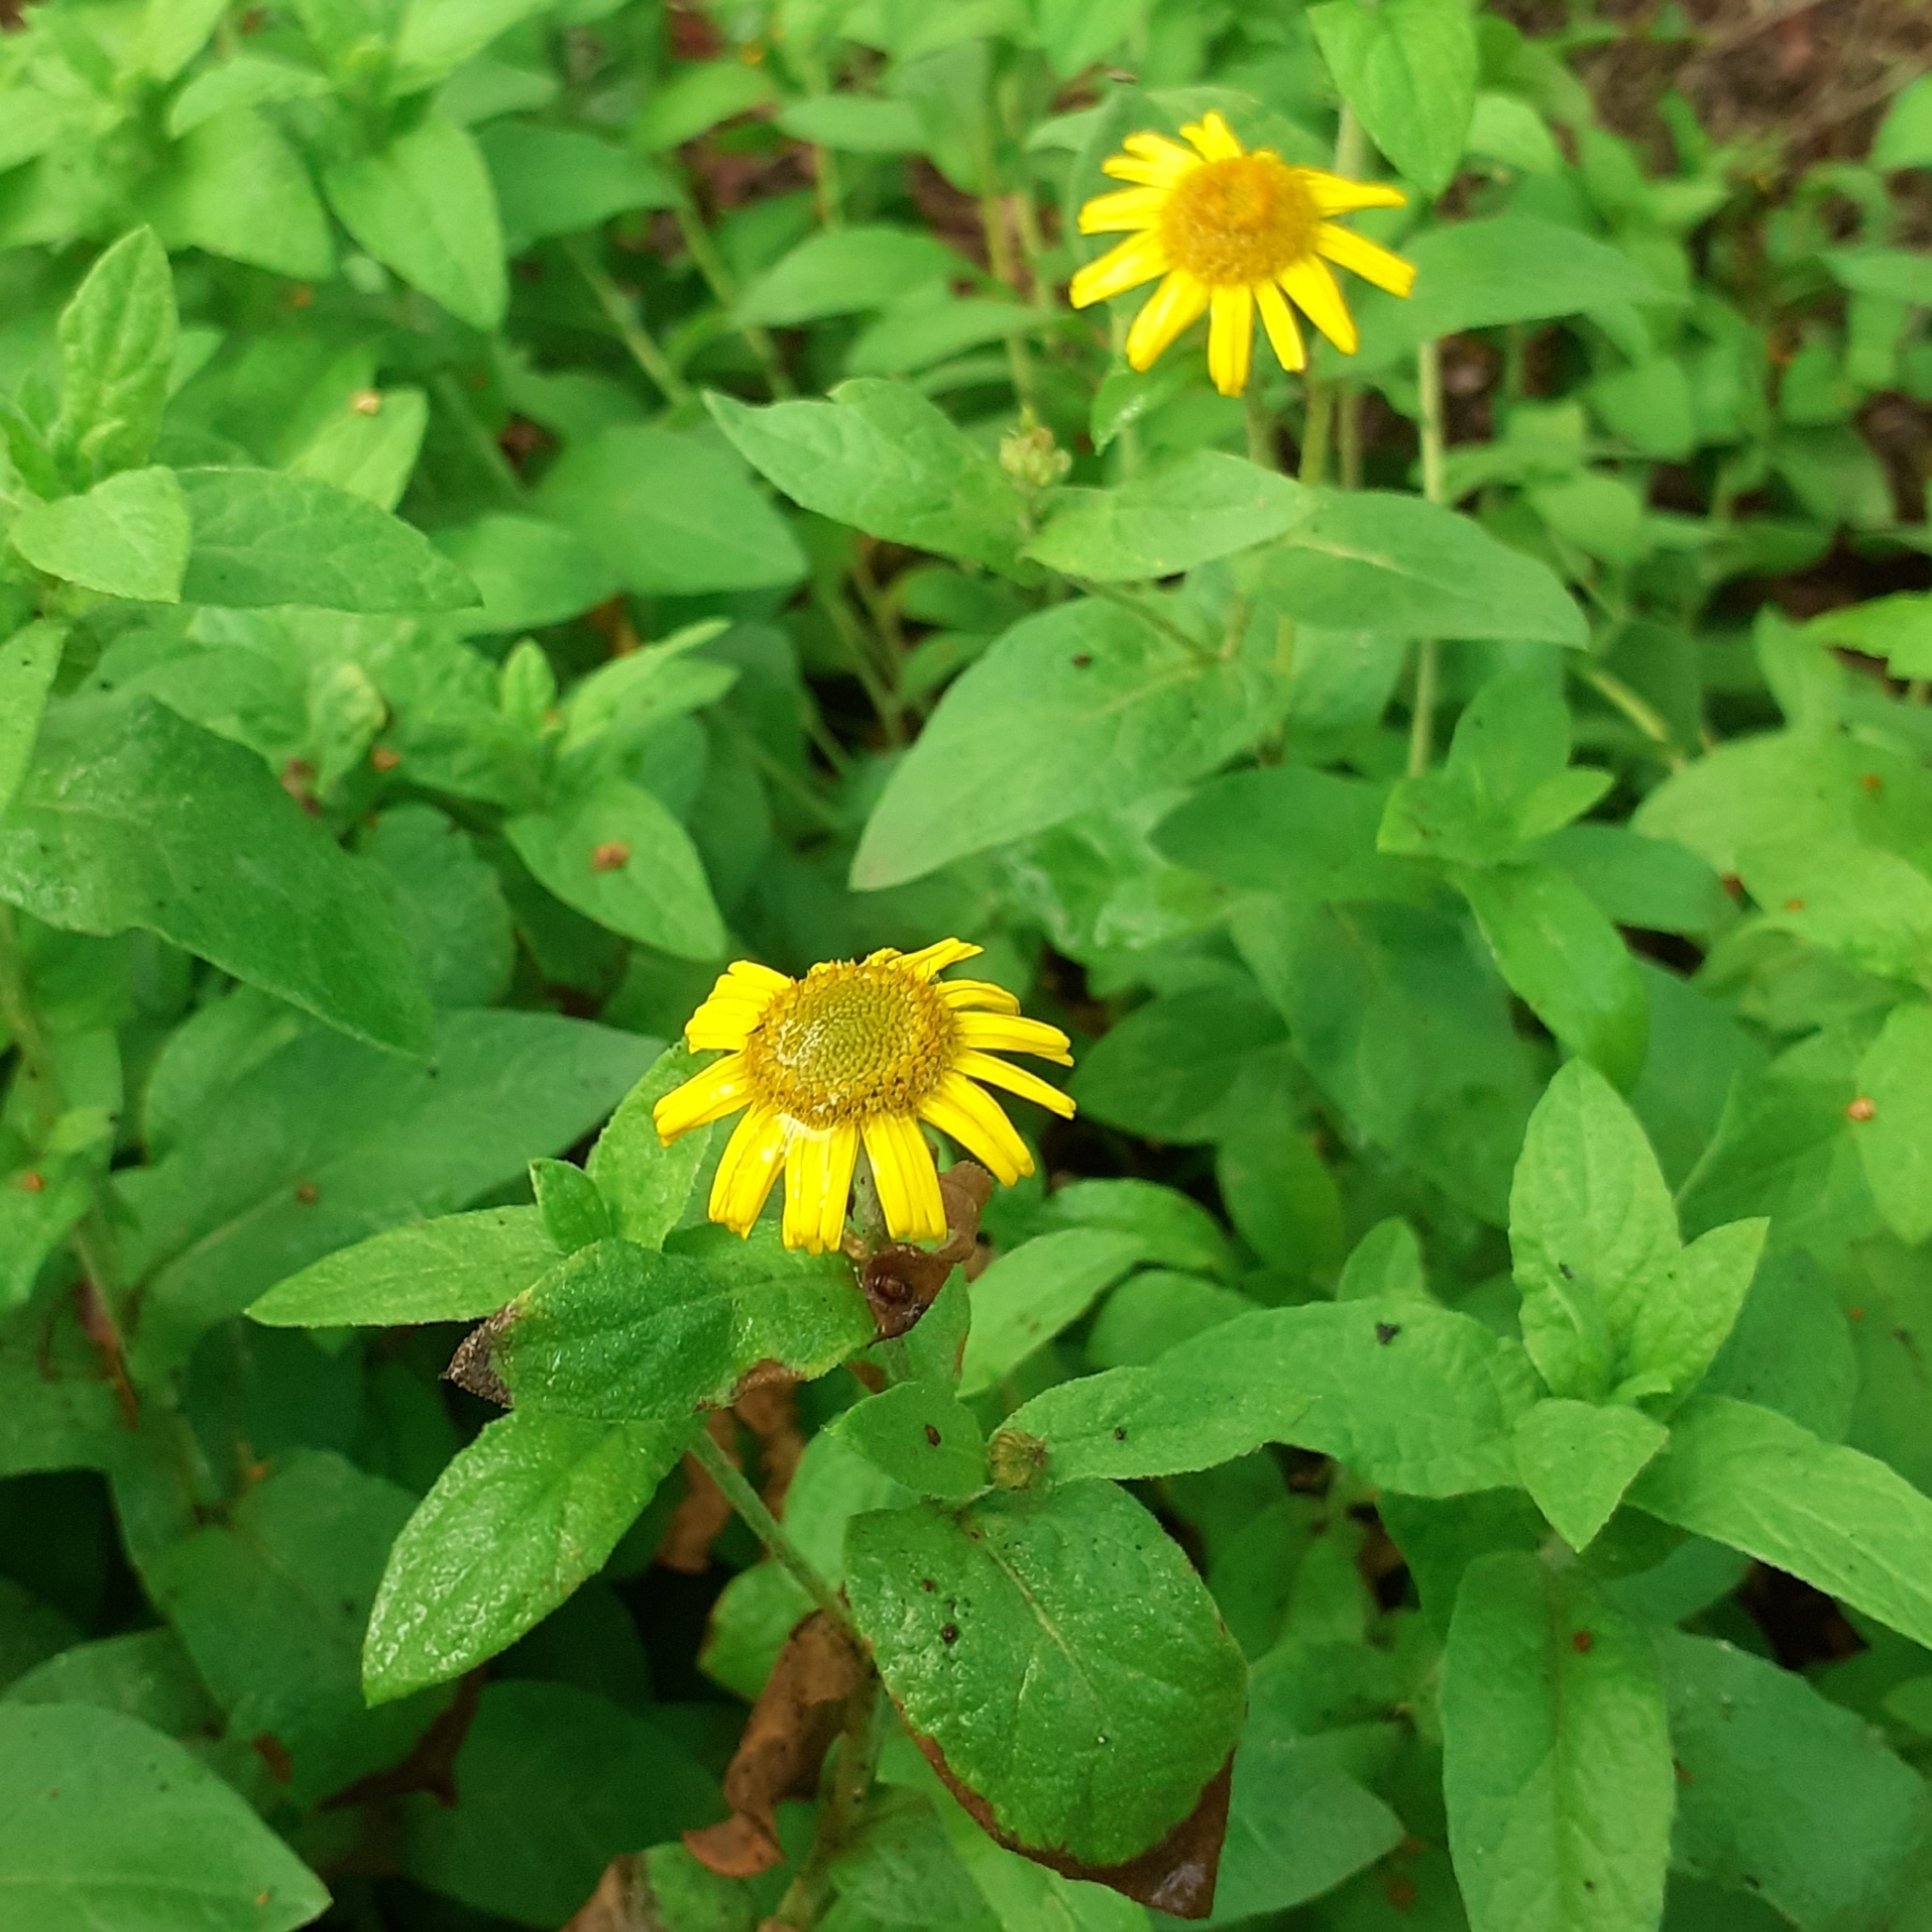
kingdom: Plantae
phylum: Tracheophyta
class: Magnoliopsida
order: Asterales
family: Asteraceae
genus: Pulicaria
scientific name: Pulicaria dysenterica
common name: Common fleabane
